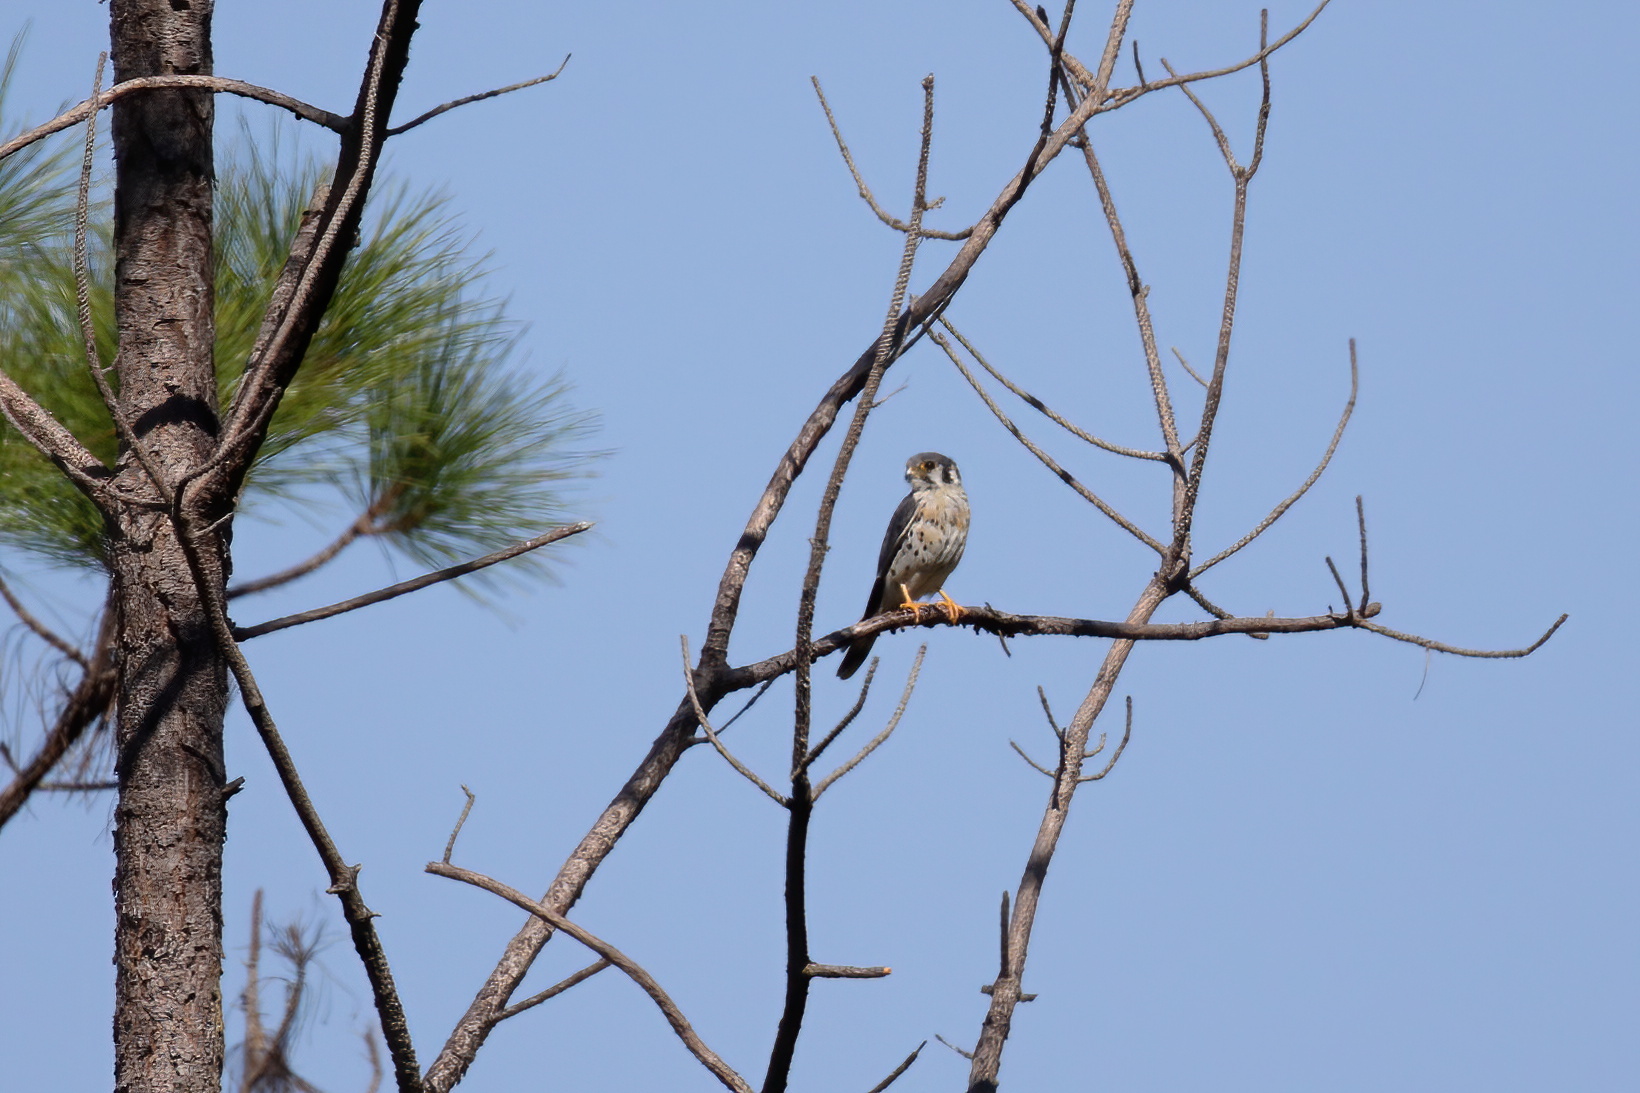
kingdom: Animalia
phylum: Chordata
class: Aves
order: Falconiformes
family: Falconidae
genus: Falco
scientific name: Falco sparverius
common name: American kestrel
